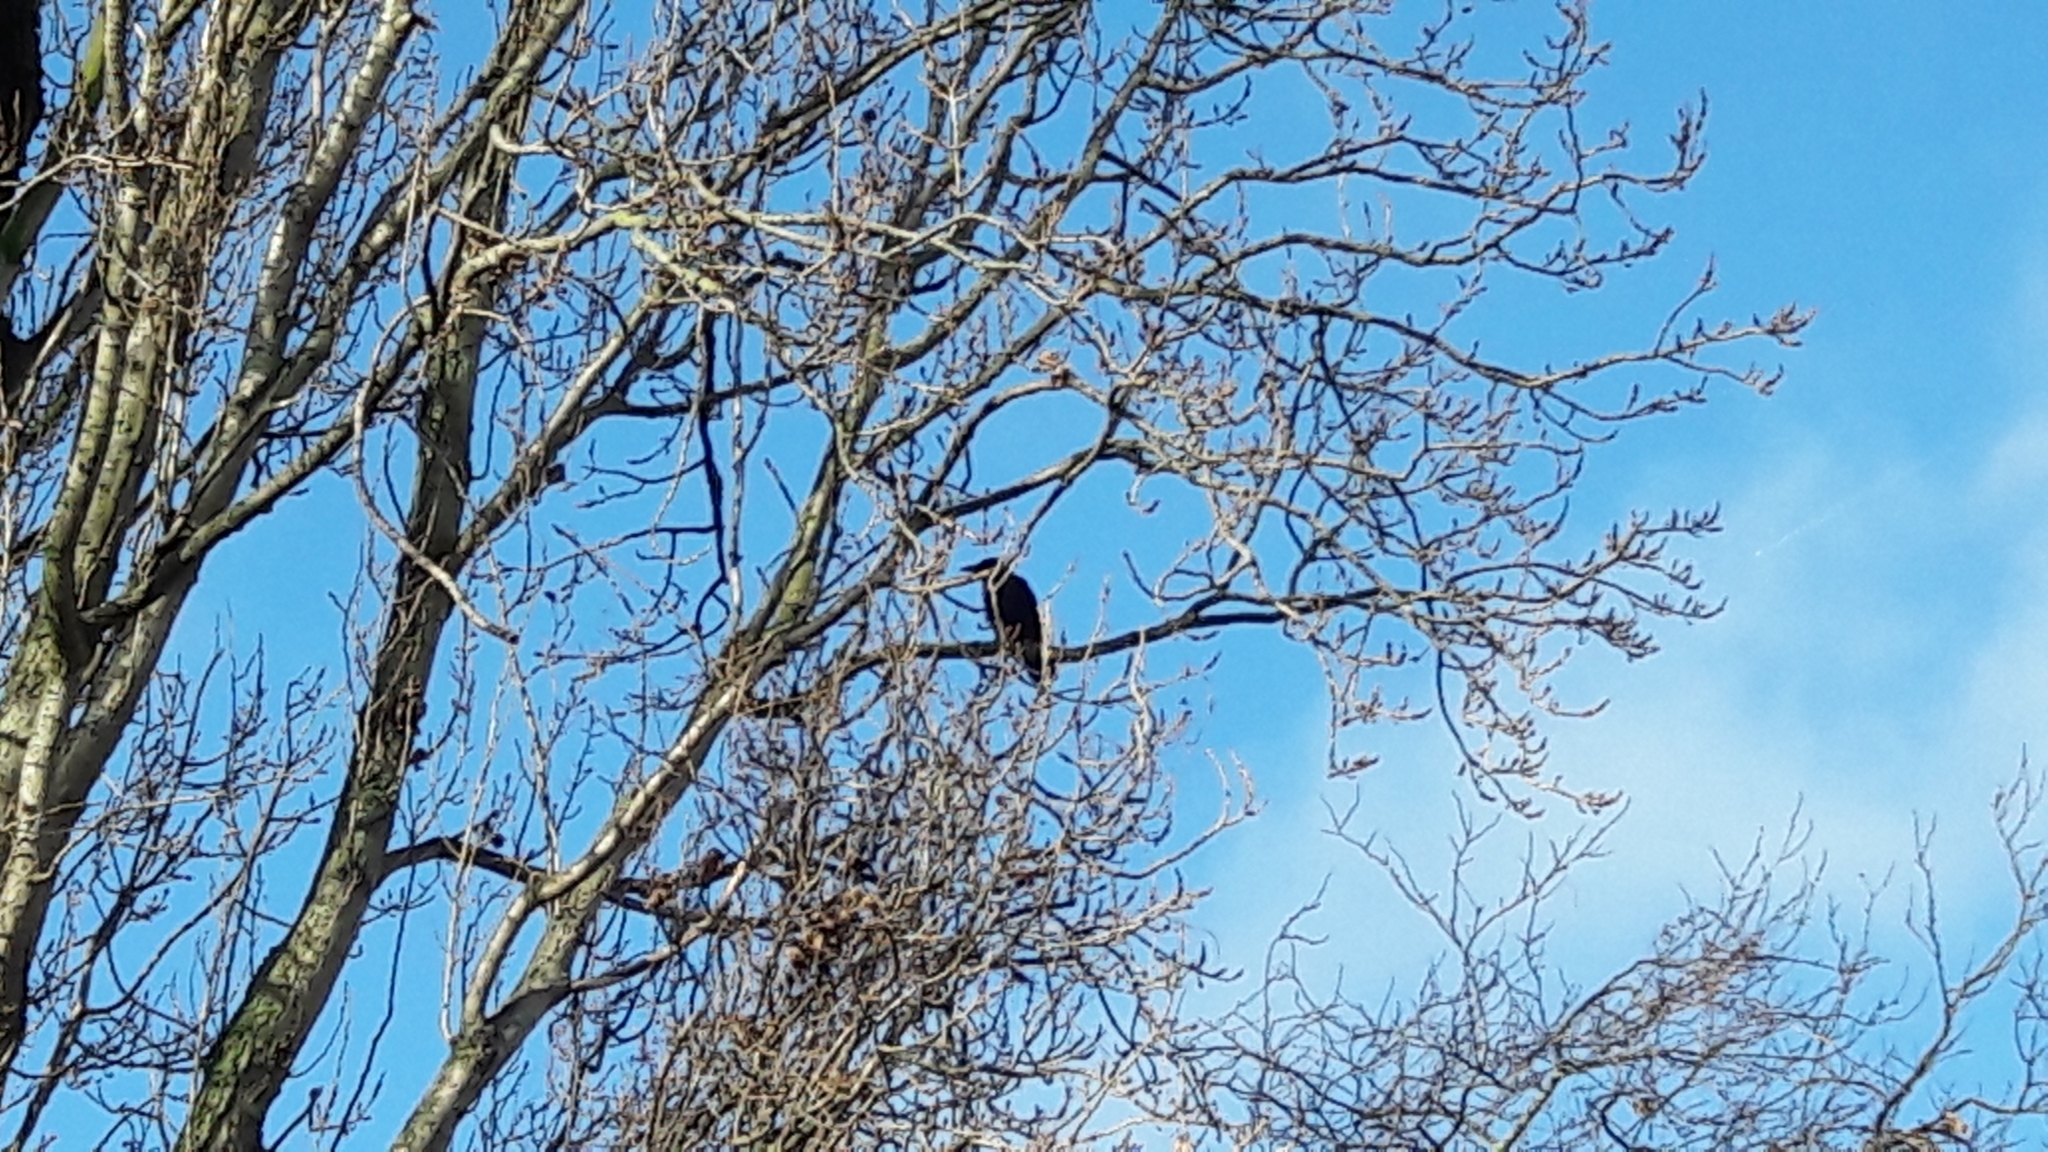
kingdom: Animalia
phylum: Chordata
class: Aves
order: Passeriformes
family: Corvidae
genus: Corvus
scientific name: Corvus corone
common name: Carrion crow
